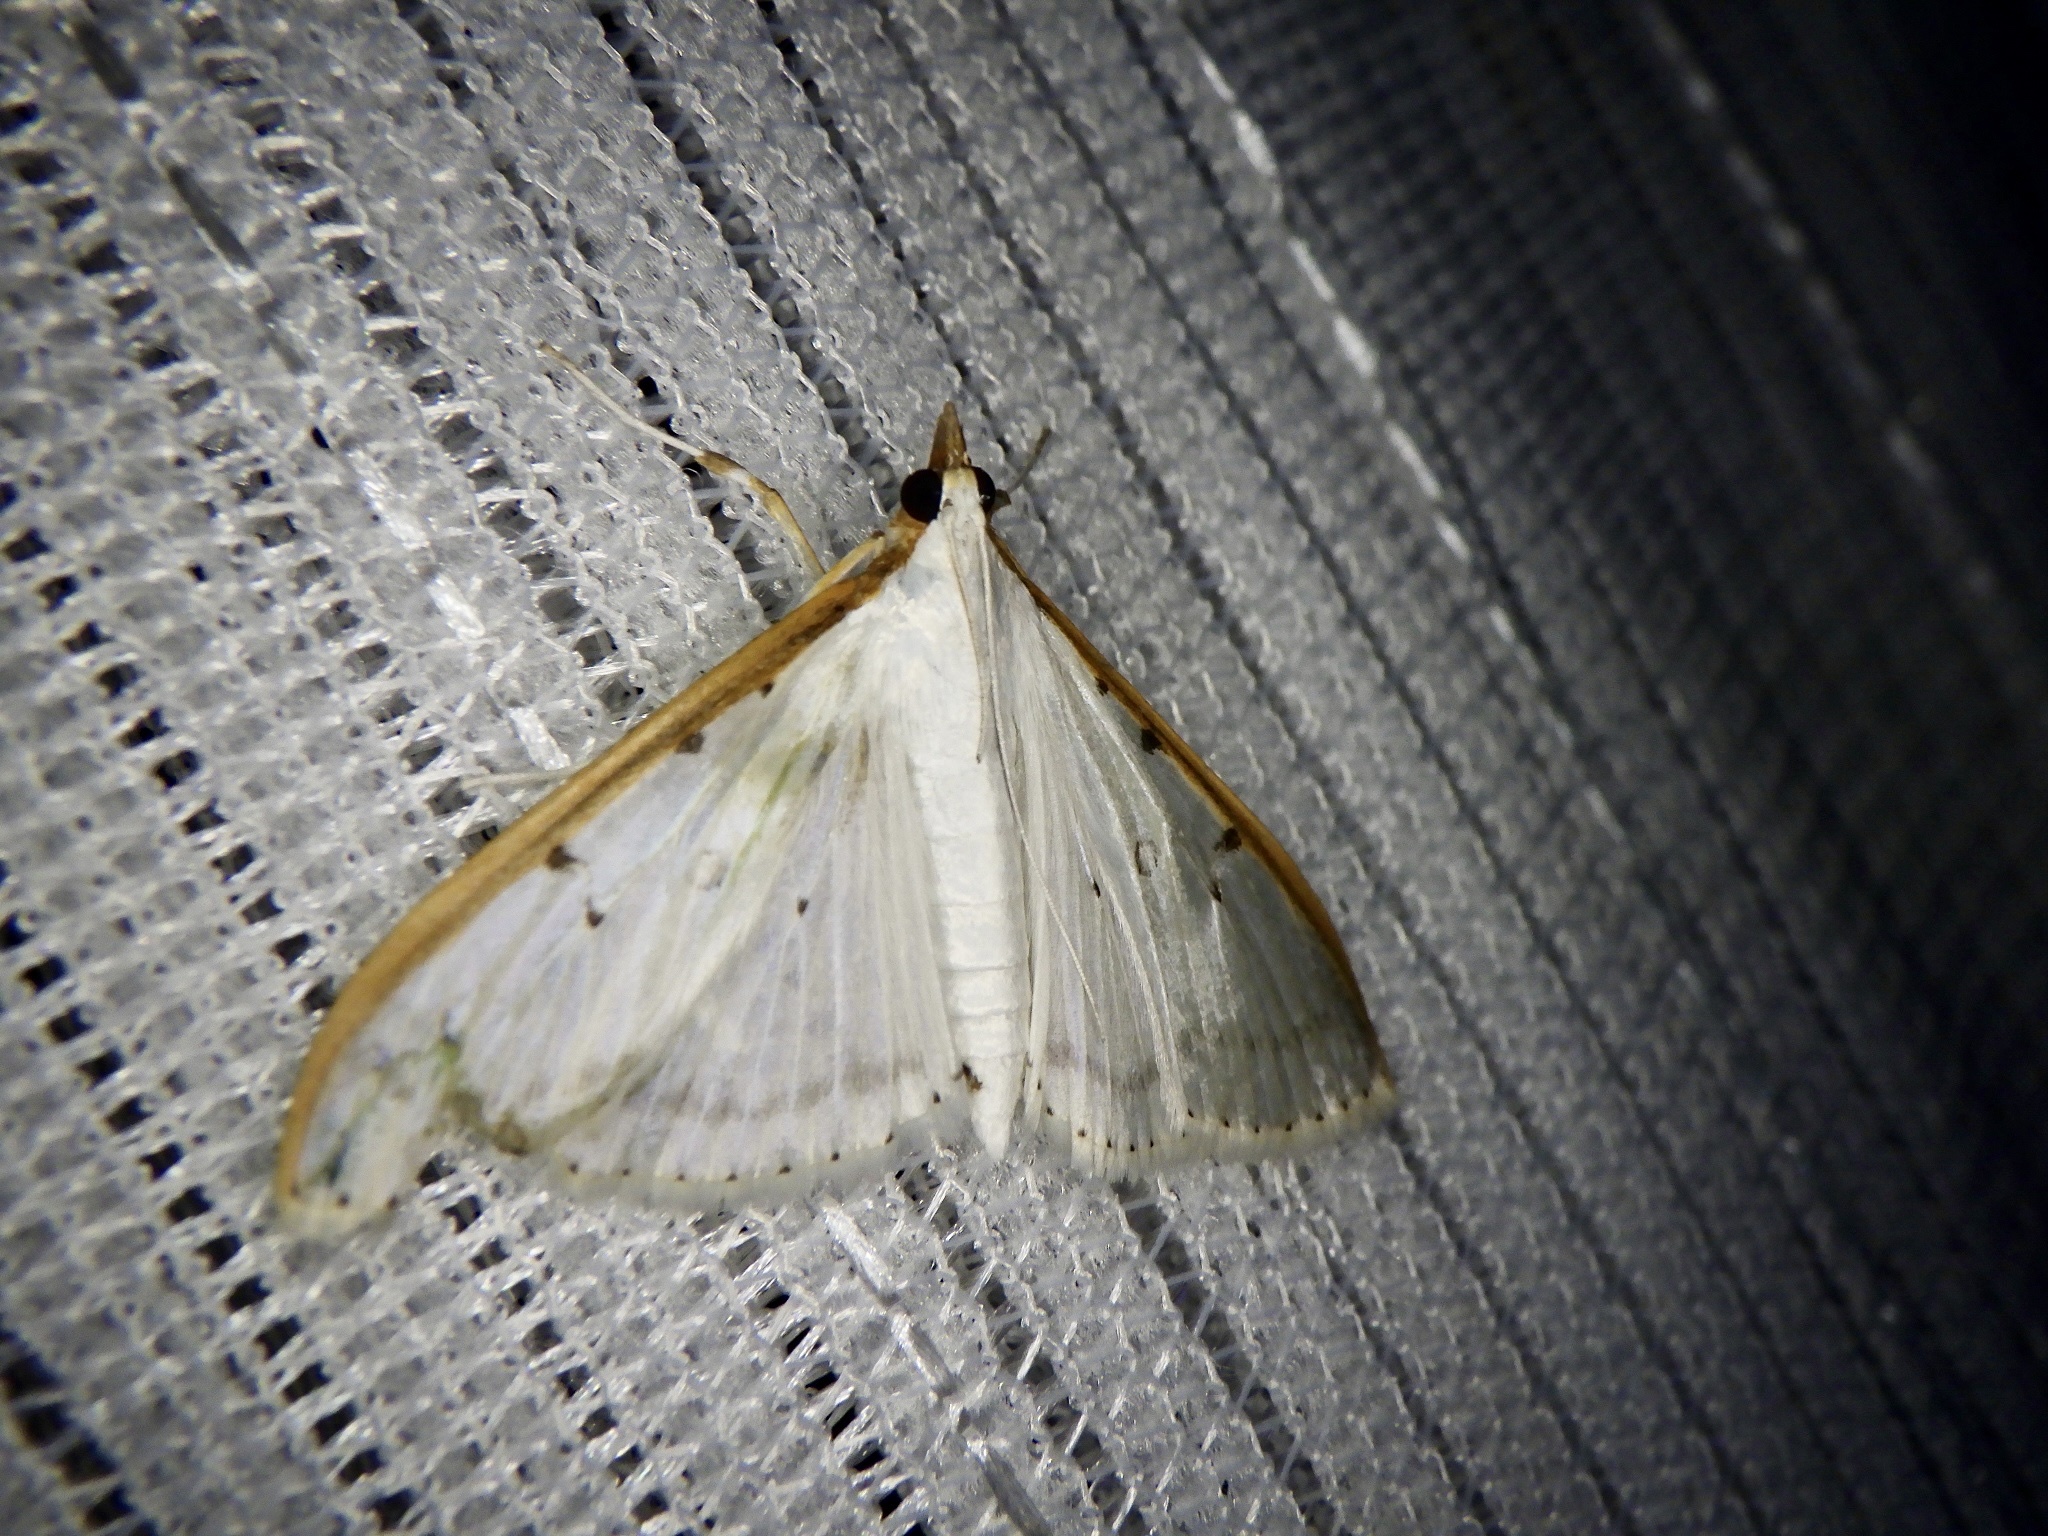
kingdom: Animalia
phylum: Arthropoda
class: Insecta
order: Lepidoptera
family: Crambidae
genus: Palpita
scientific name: Palpita nigropunctalis
